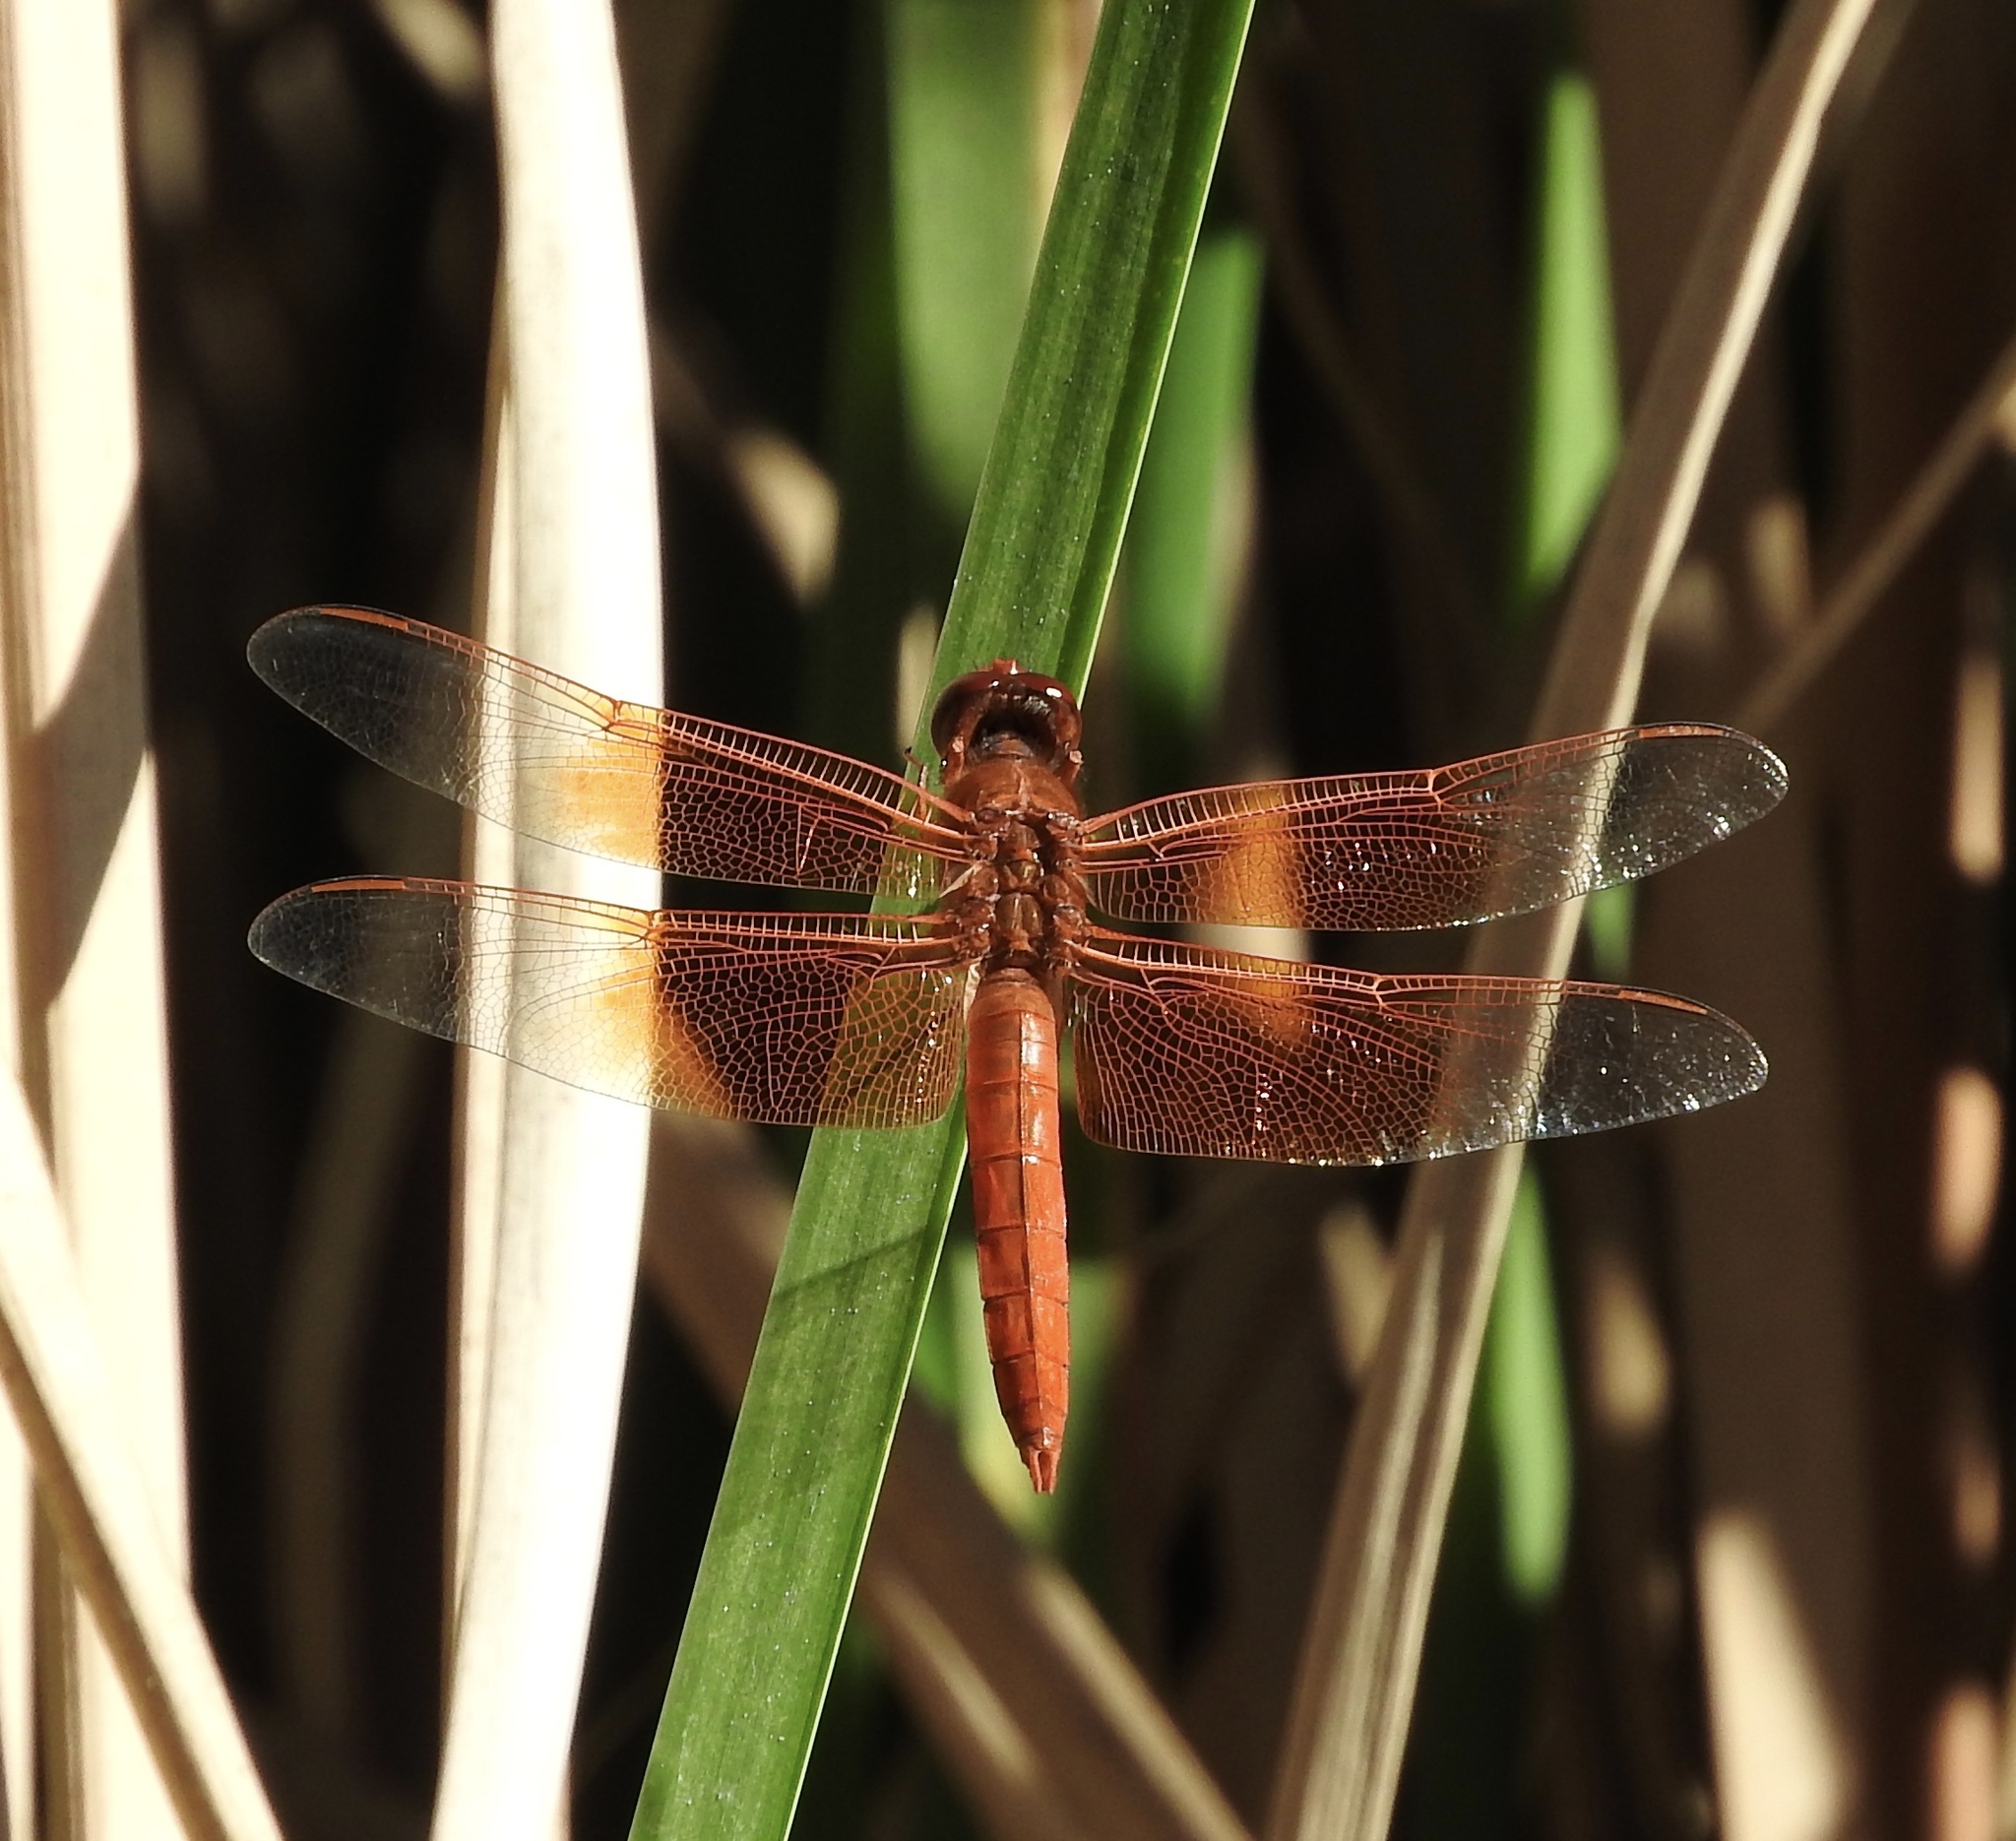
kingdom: Animalia
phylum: Arthropoda
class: Insecta
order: Odonata
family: Libellulidae
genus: Libellula
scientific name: Libellula saturata
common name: Flame skimmer
